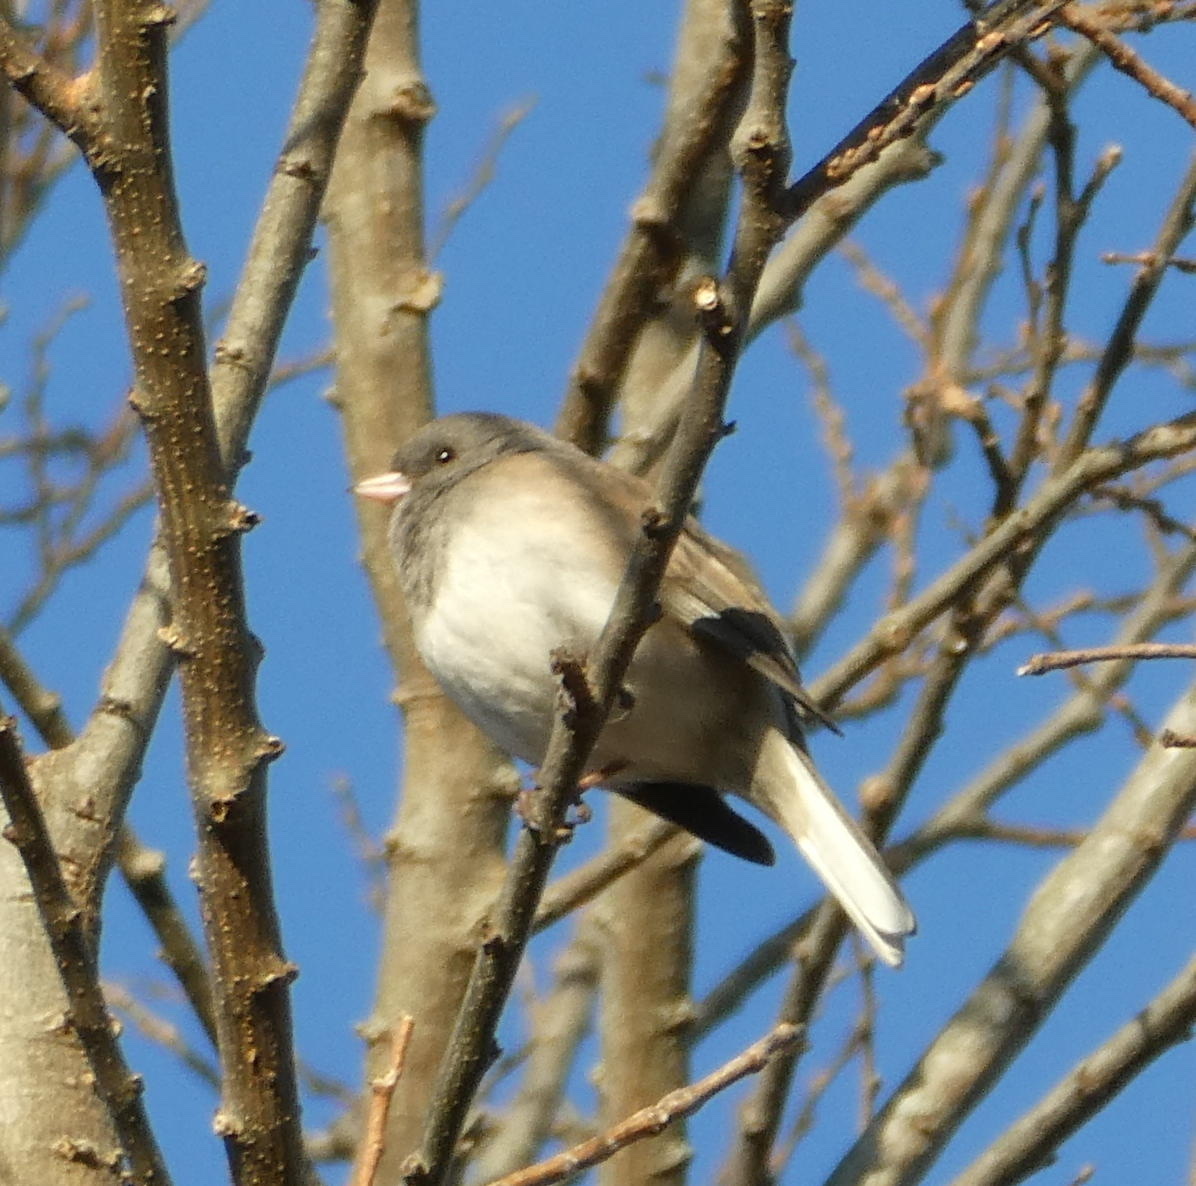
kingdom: Animalia
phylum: Chordata
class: Aves
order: Passeriformes
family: Passerellidae
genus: Junco
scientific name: Junco hyemalis
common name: Dark-eyed junco
